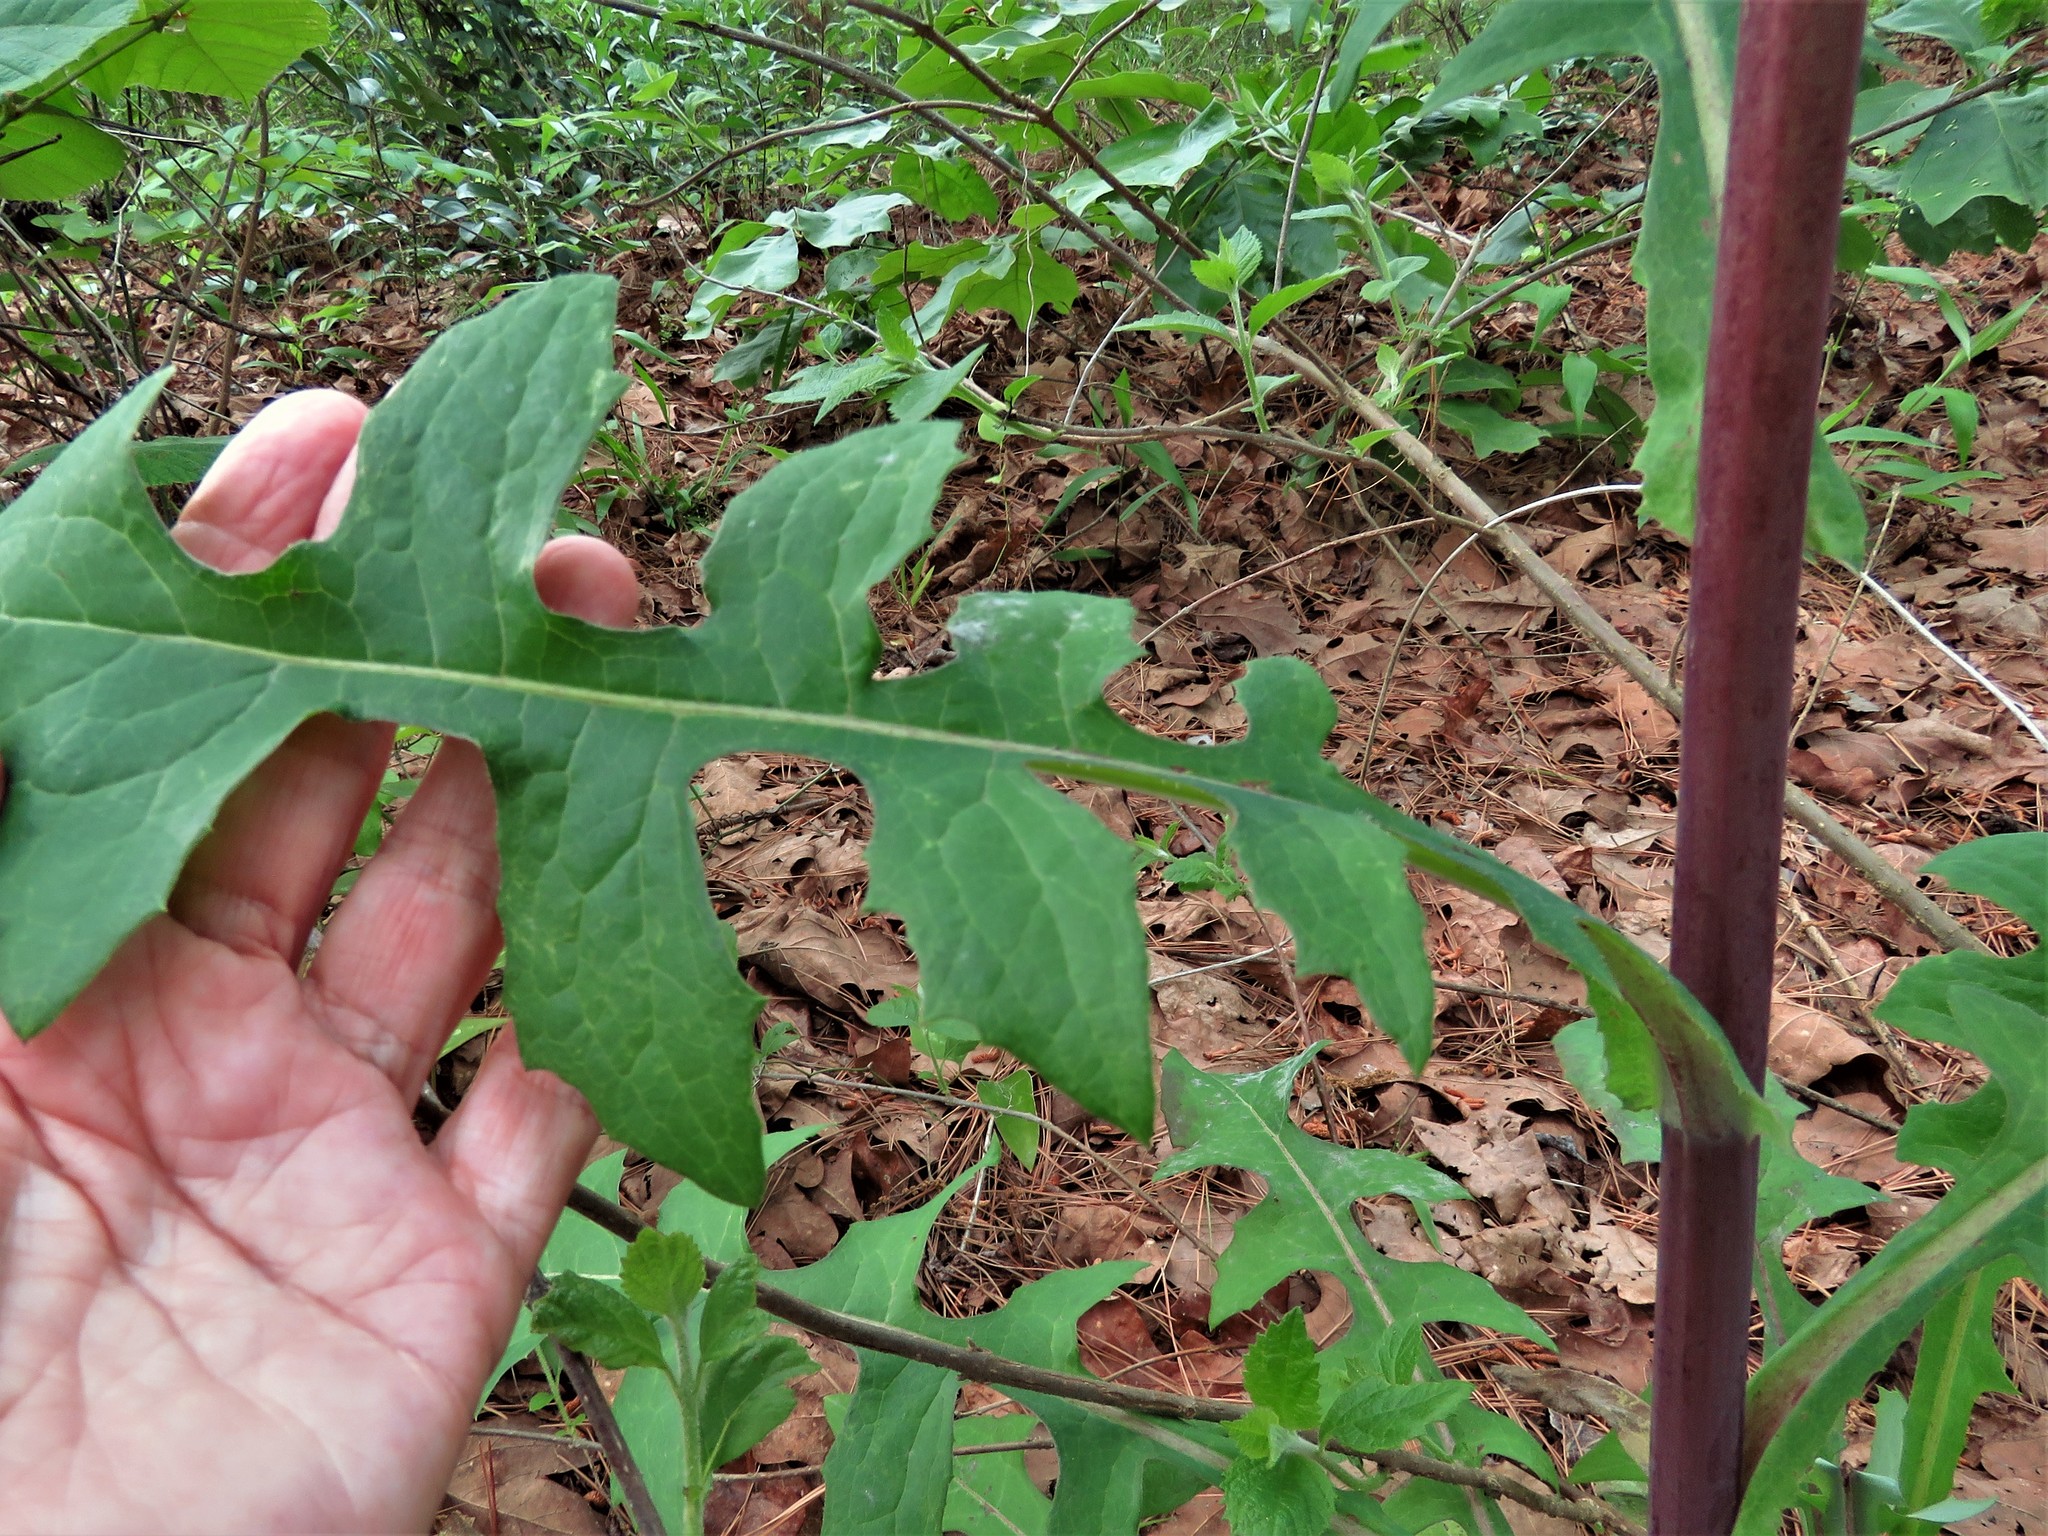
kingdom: Plantae
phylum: Tracheophyta
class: Magnoliopsida
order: Asterales
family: Asteraceae
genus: Lactuca
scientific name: Lactuca canadensis
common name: Canada lettuce
